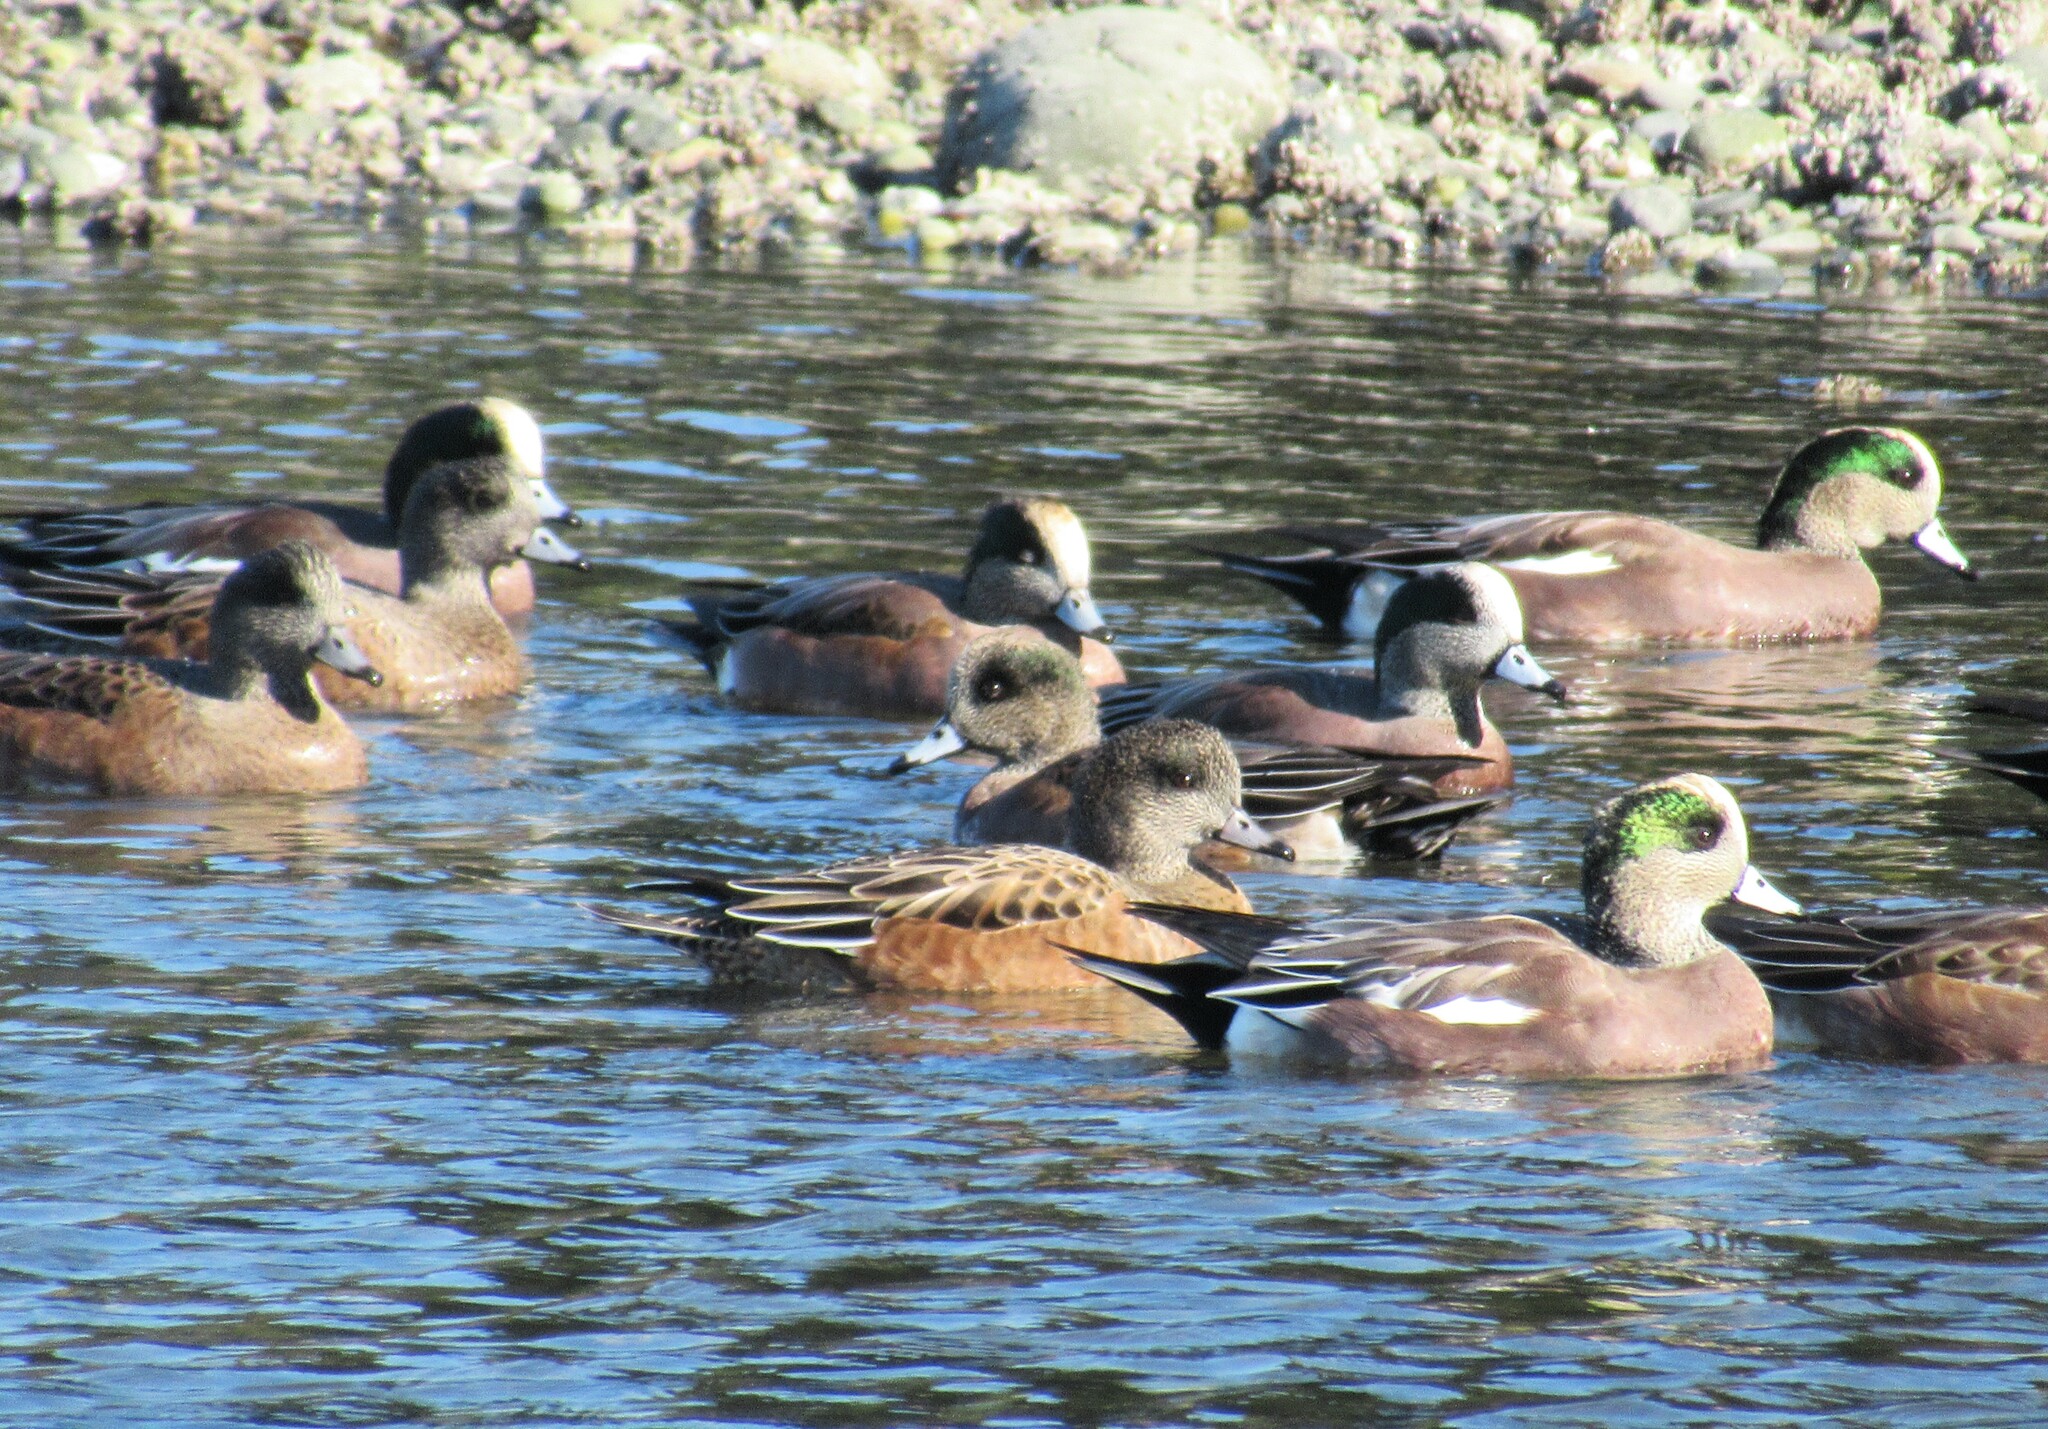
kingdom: Animalia
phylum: Chordata
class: Aves
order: Anseriformes
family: Anatidae
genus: Mareca
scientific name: Mareca americana
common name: American wigeon
